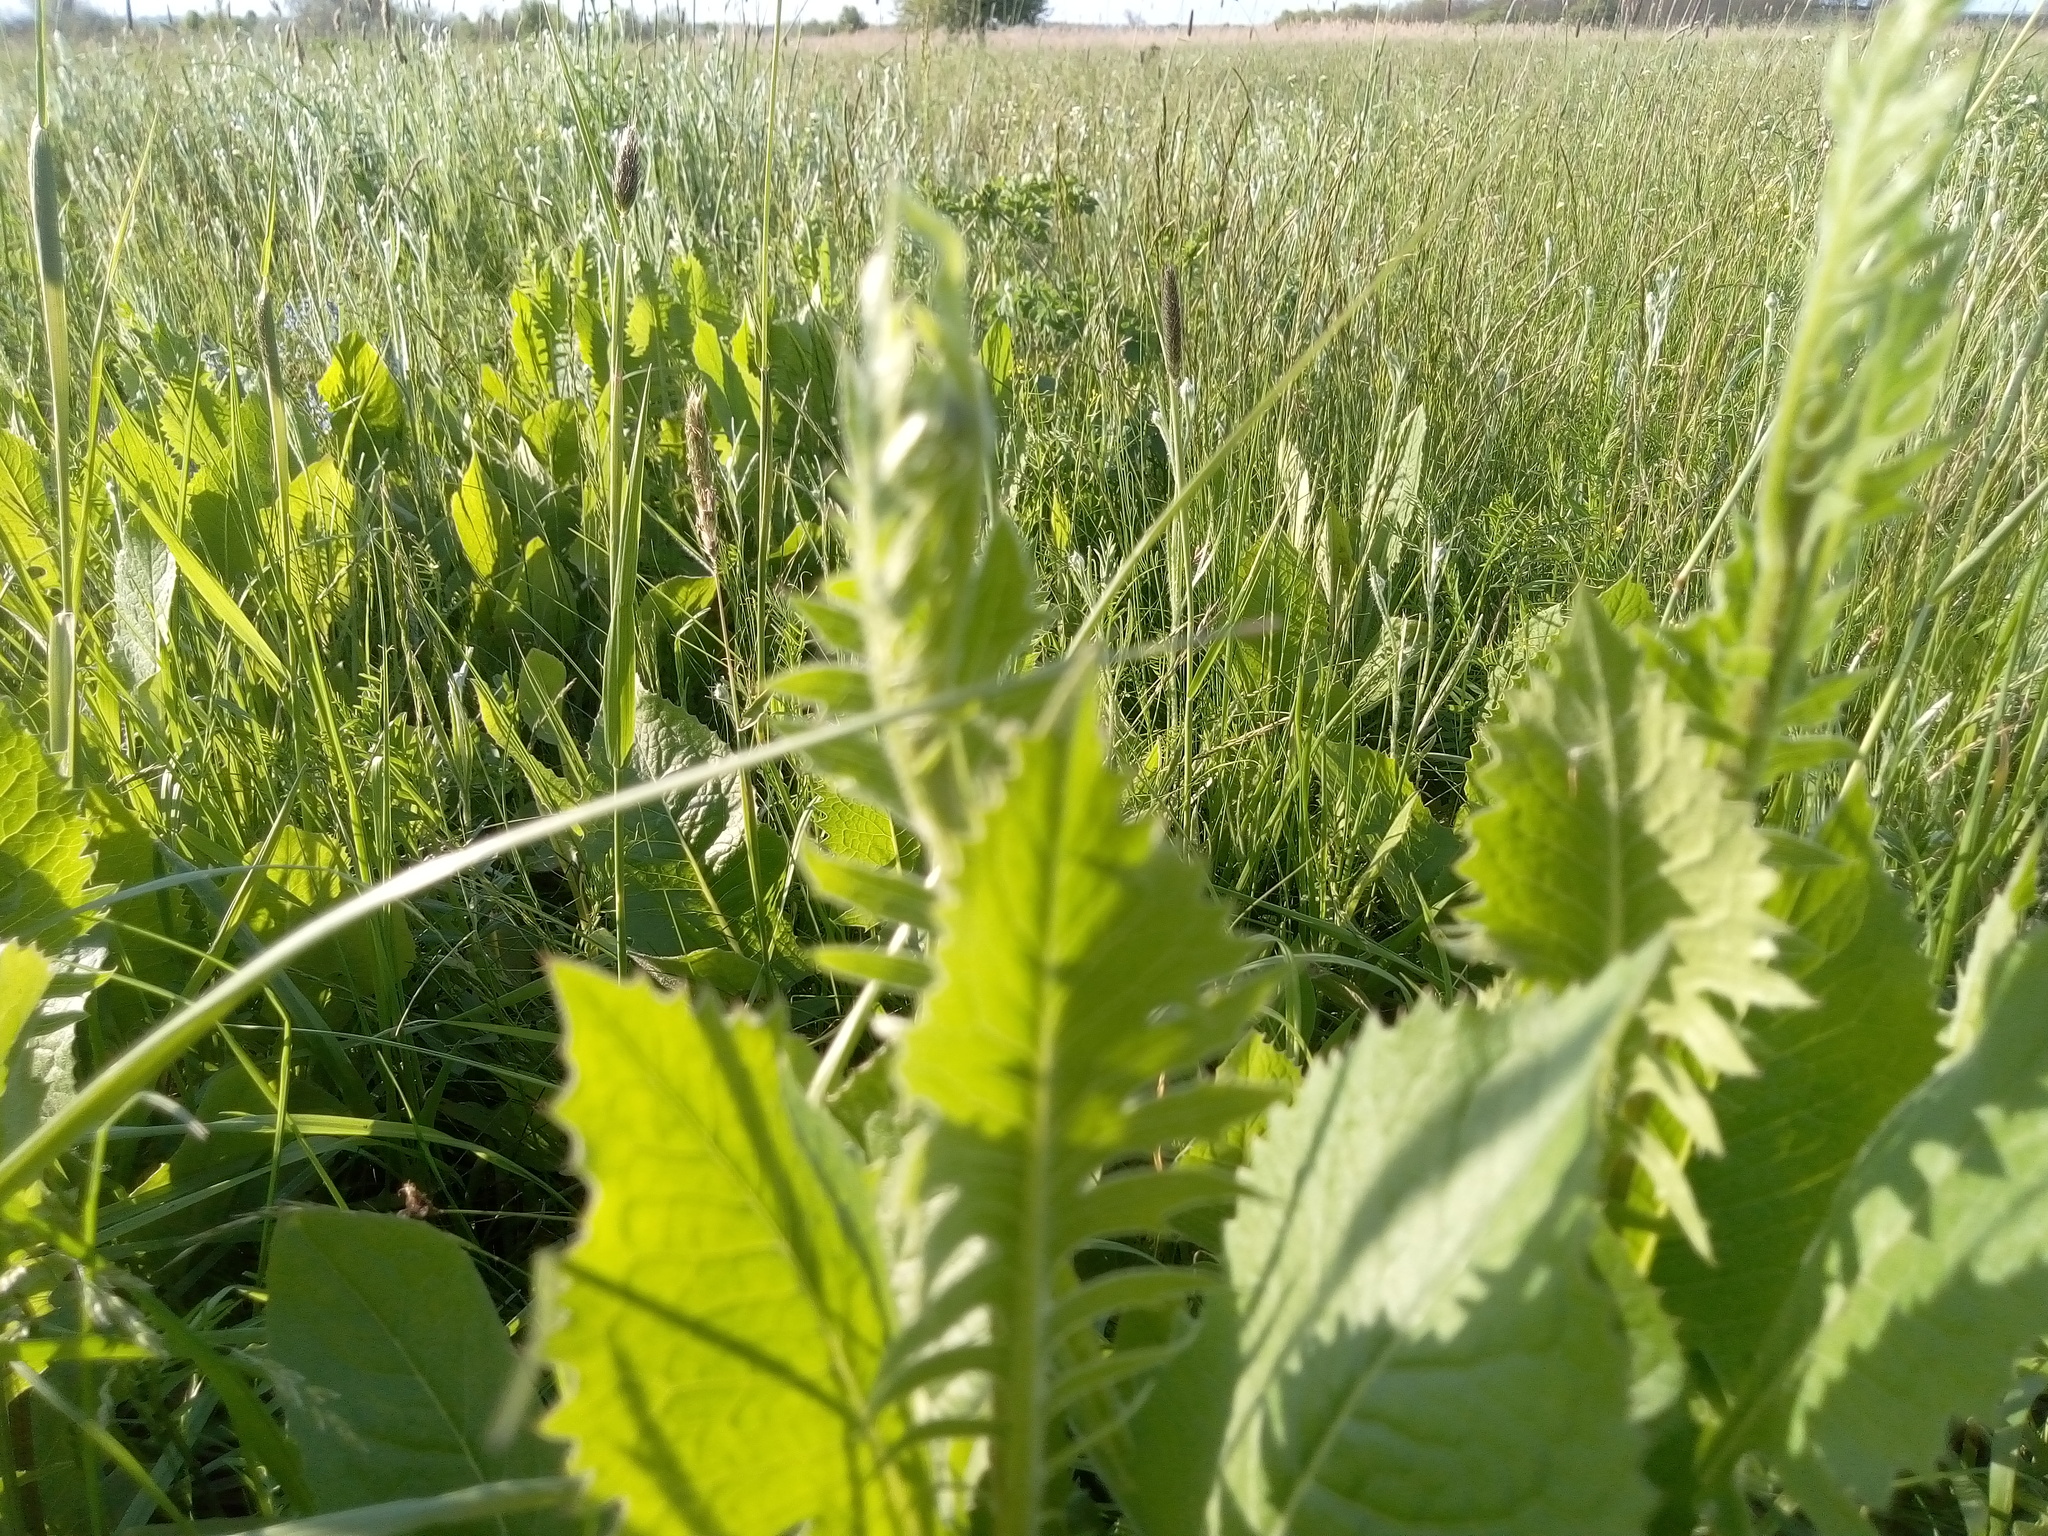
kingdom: Plantae
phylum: Tracheophyta
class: Magnoliopsida
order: Asterales
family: Asteraceae
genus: Klasea
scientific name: Klasea radiata
